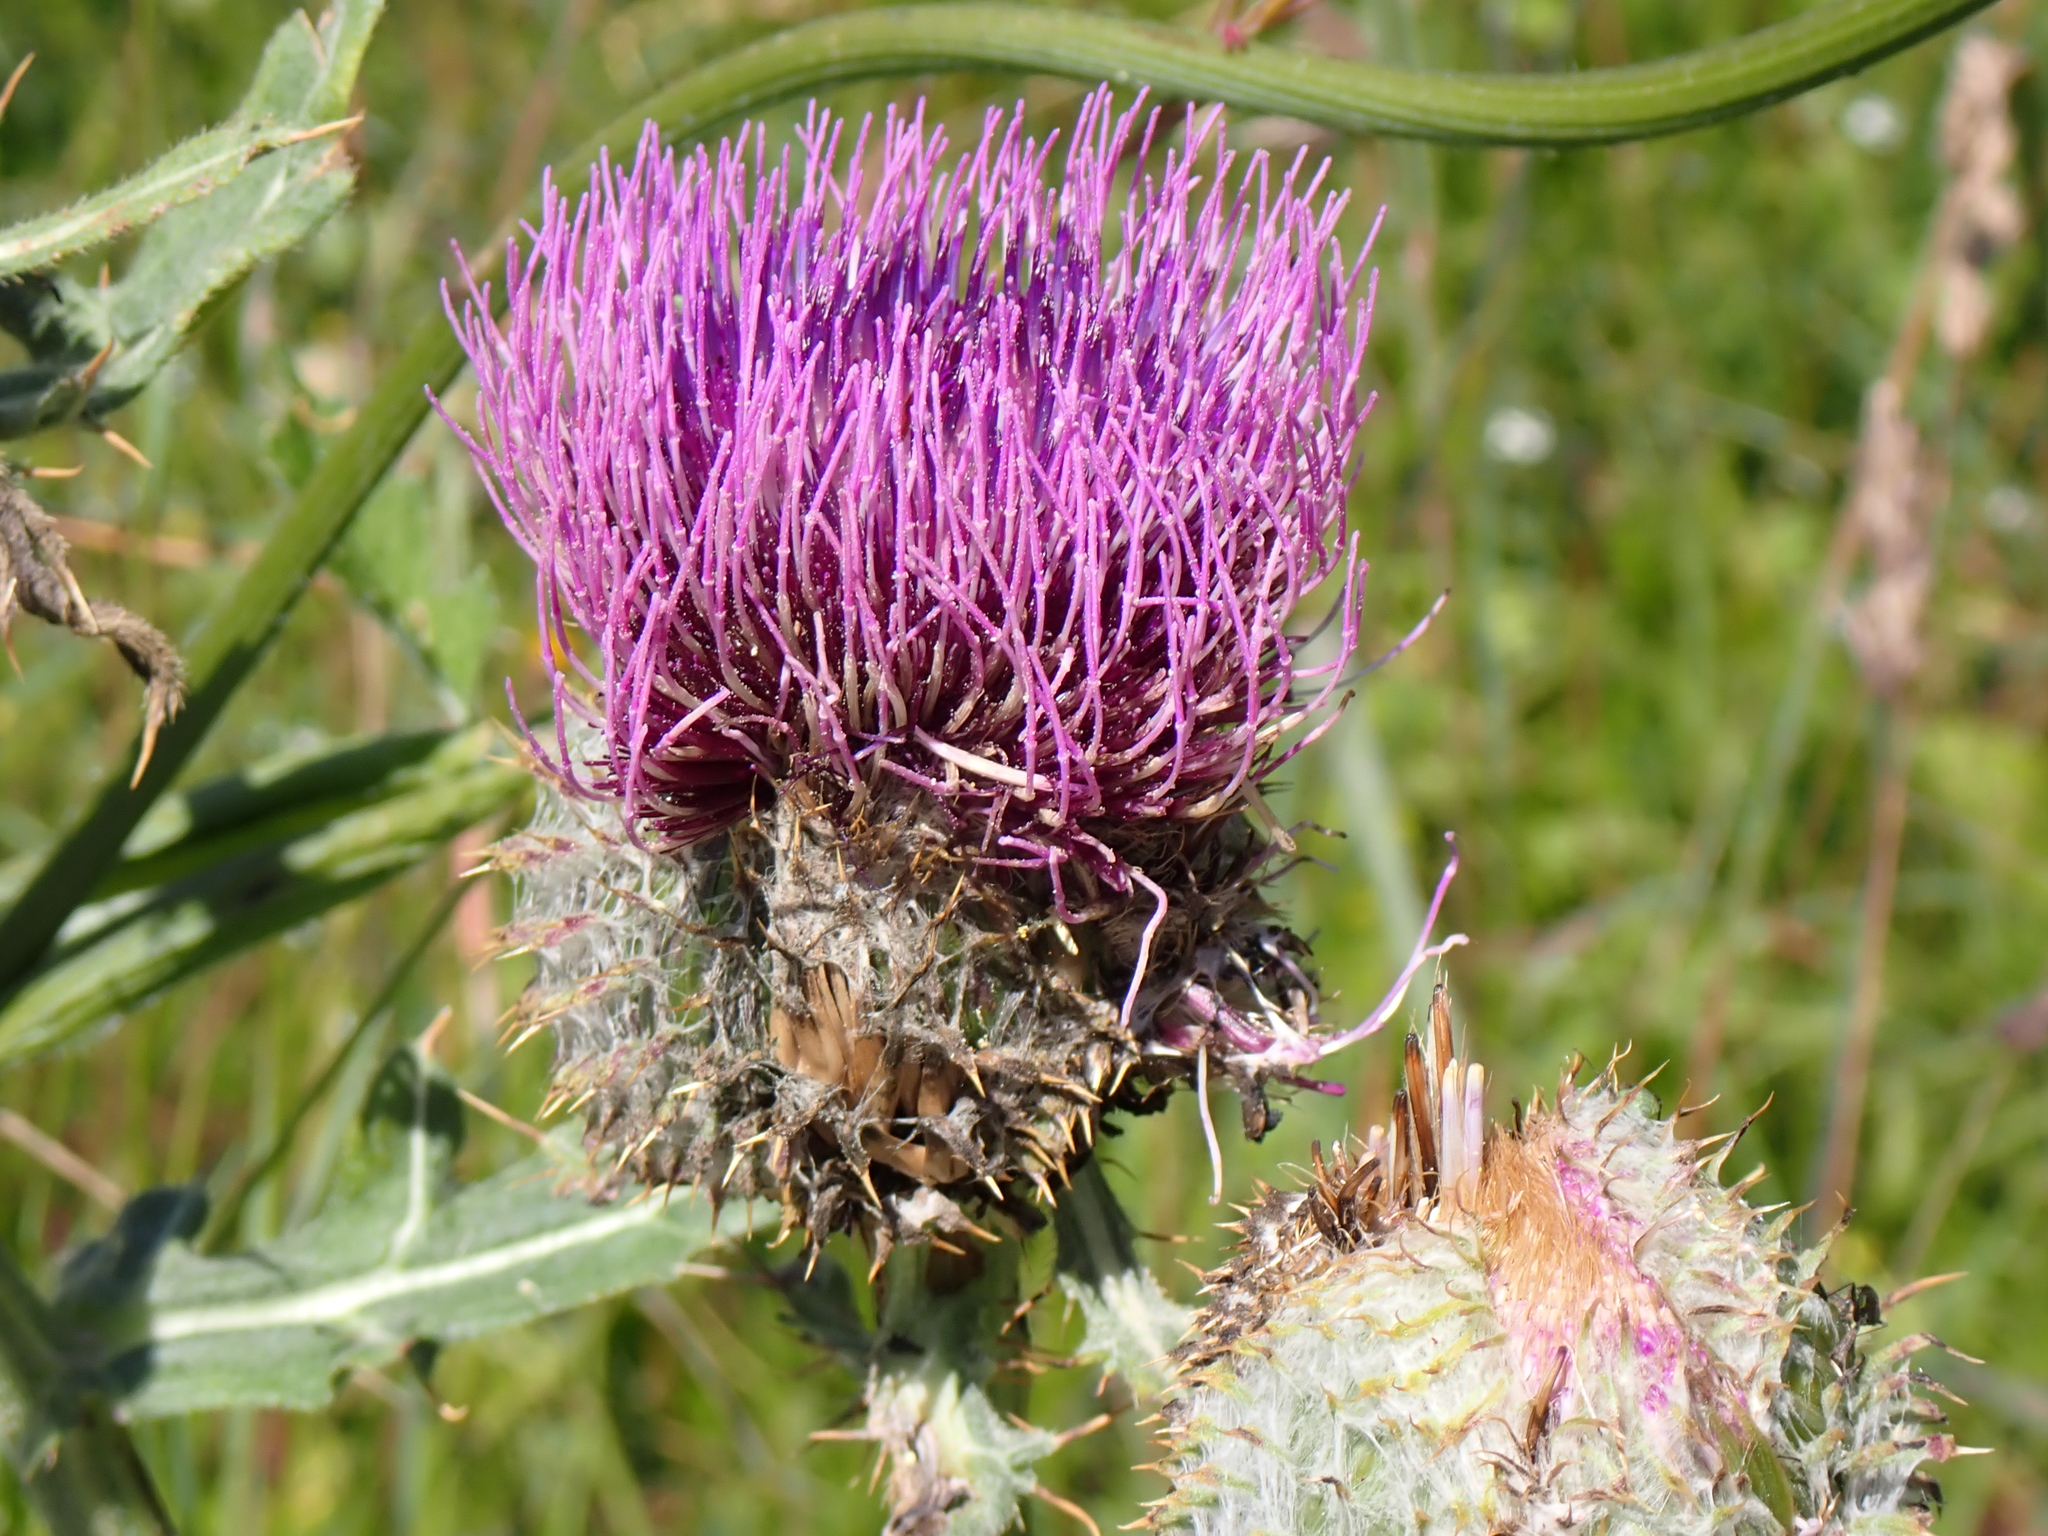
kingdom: Plantae
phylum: Tracheophyta
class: Magnoliopsida
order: Asterales
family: Asteraceae
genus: Lophiolepis
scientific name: Lophiolepis eriophora
